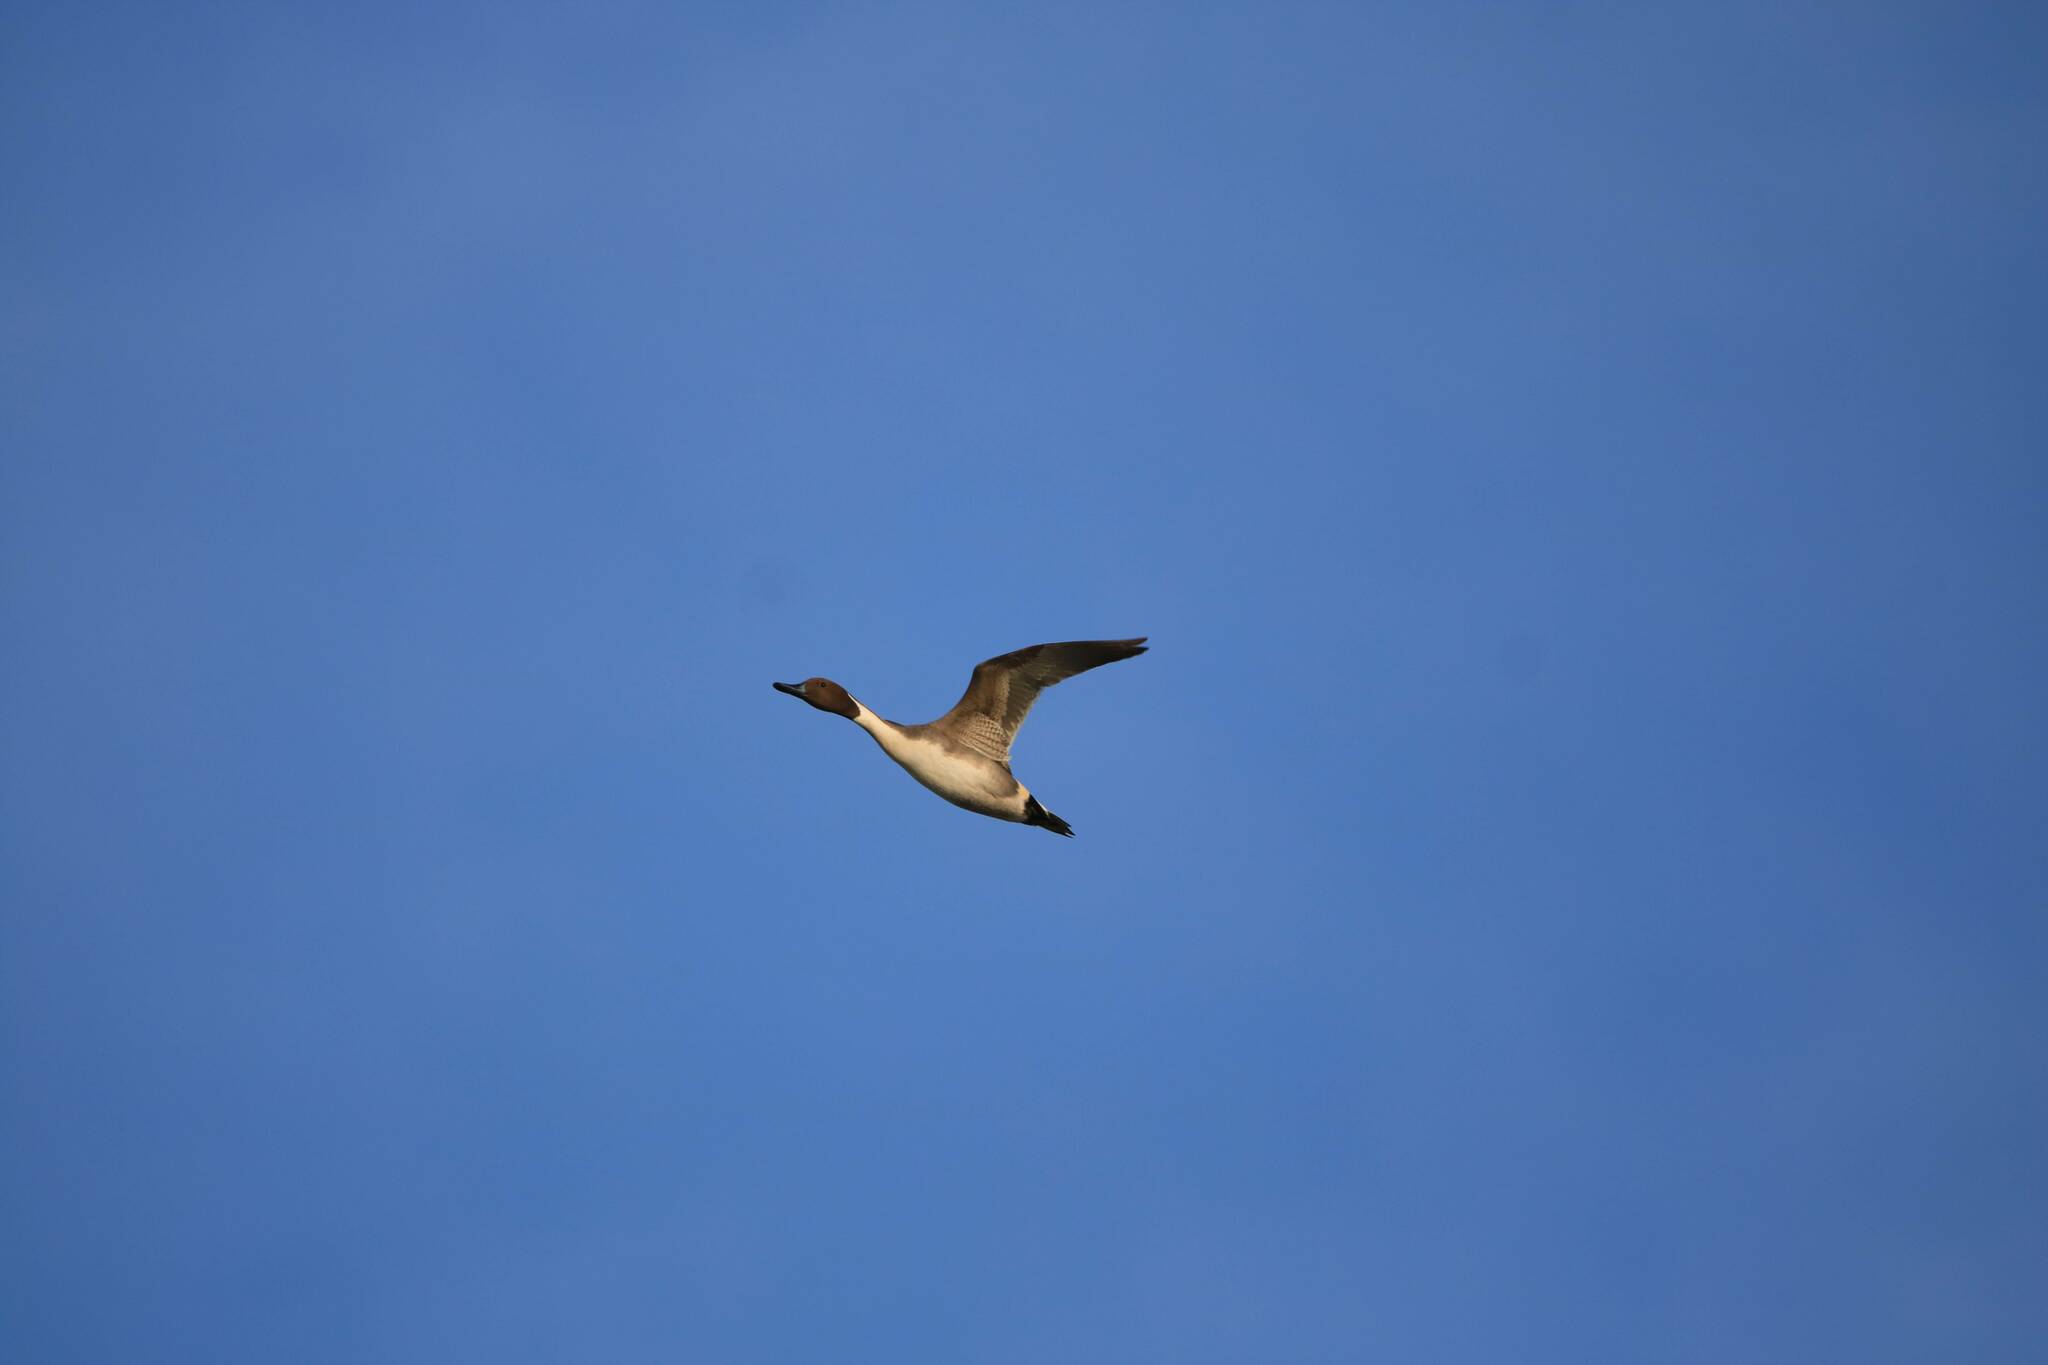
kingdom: Animalia
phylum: Chordata
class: Aves
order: Anseriformes
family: Anatidae
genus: Anas
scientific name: Anas acuta
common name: Northern pintail
